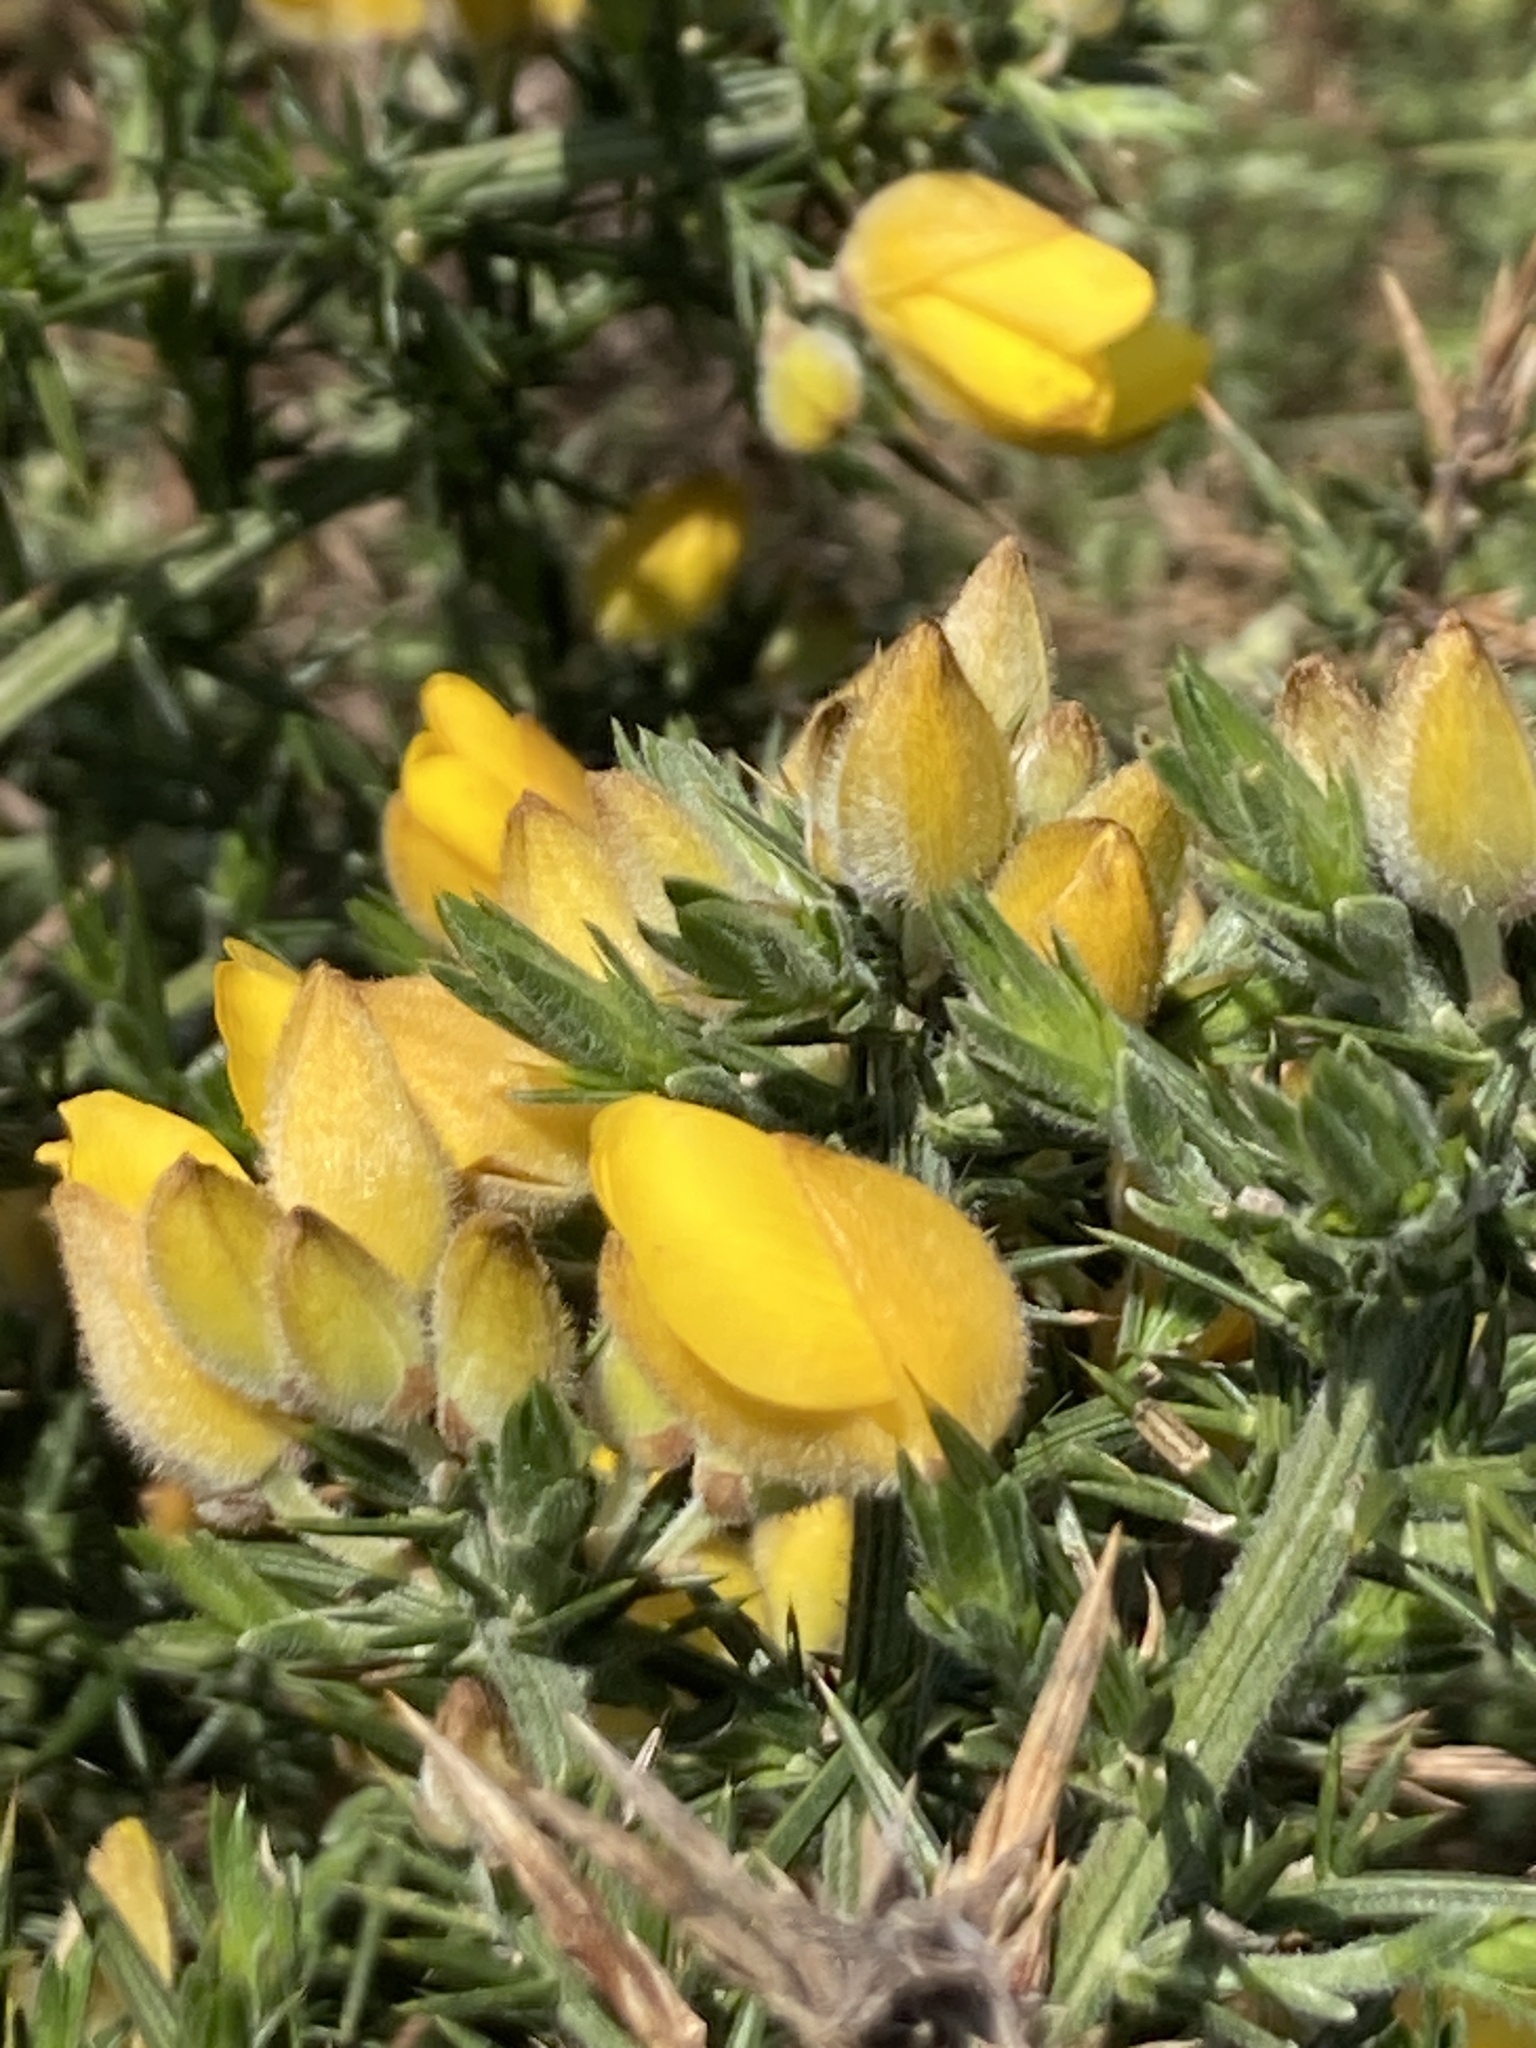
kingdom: Plantae
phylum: Tracheophyta
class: Magnoliopsida
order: Fabales
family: Fabaceae
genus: Ulex
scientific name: Ulex europaeus
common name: Common gorse
